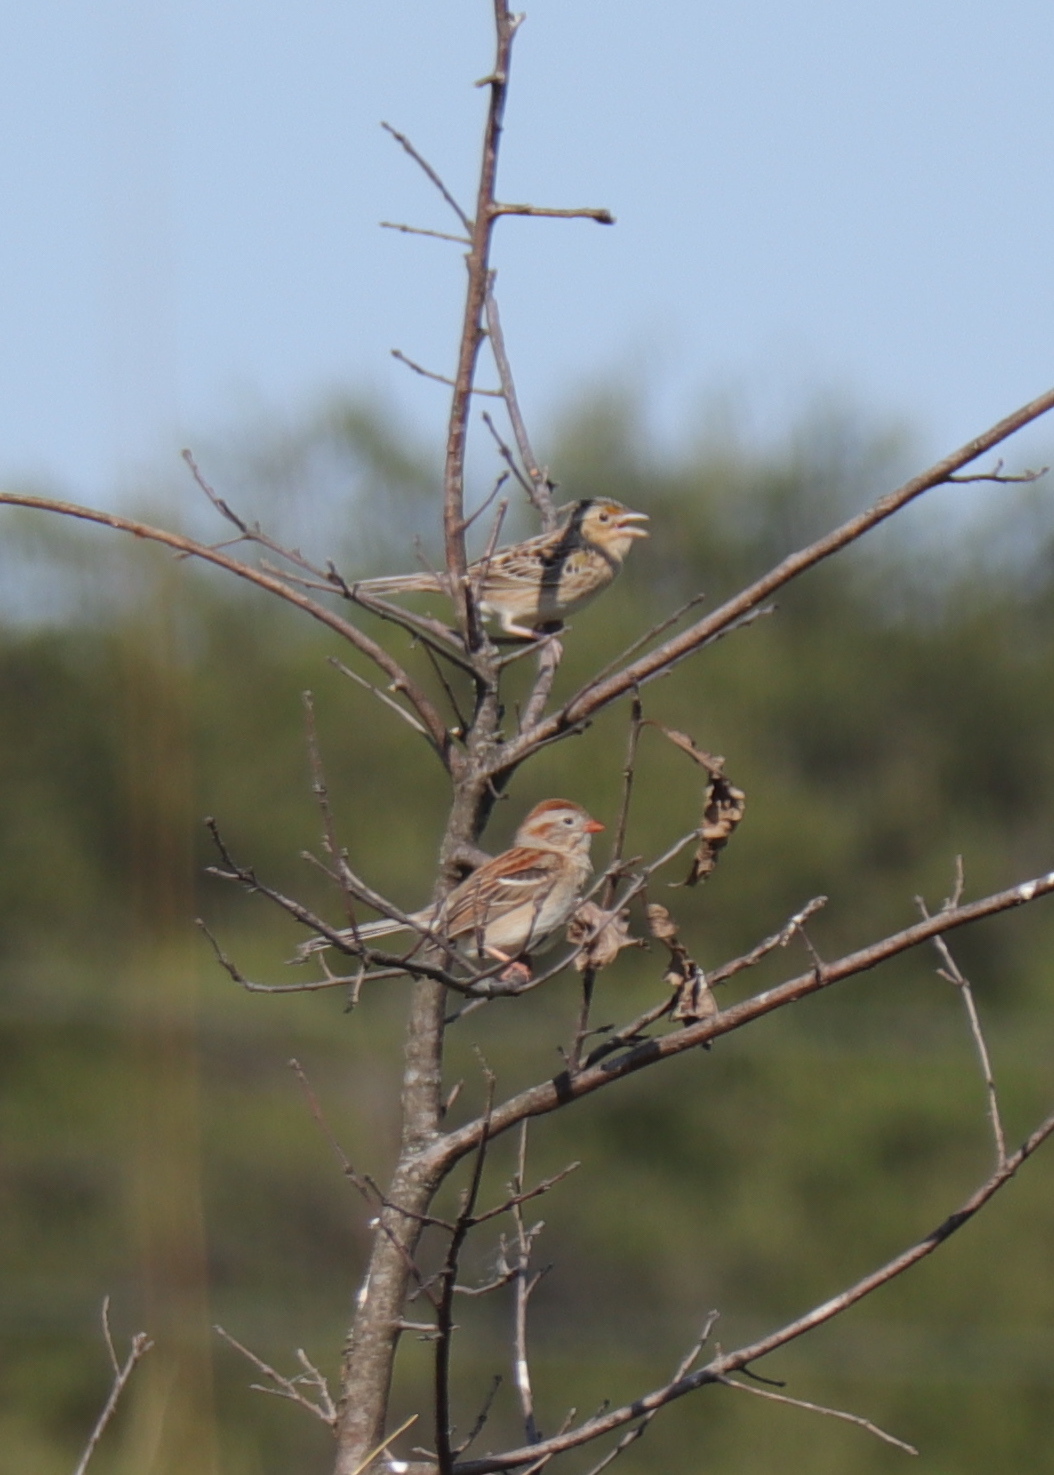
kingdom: Animalia
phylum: Chordata
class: Aves
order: Passeriformes
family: Passerellidae
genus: Spizella
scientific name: Spizella pusilla
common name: Field sparrow
